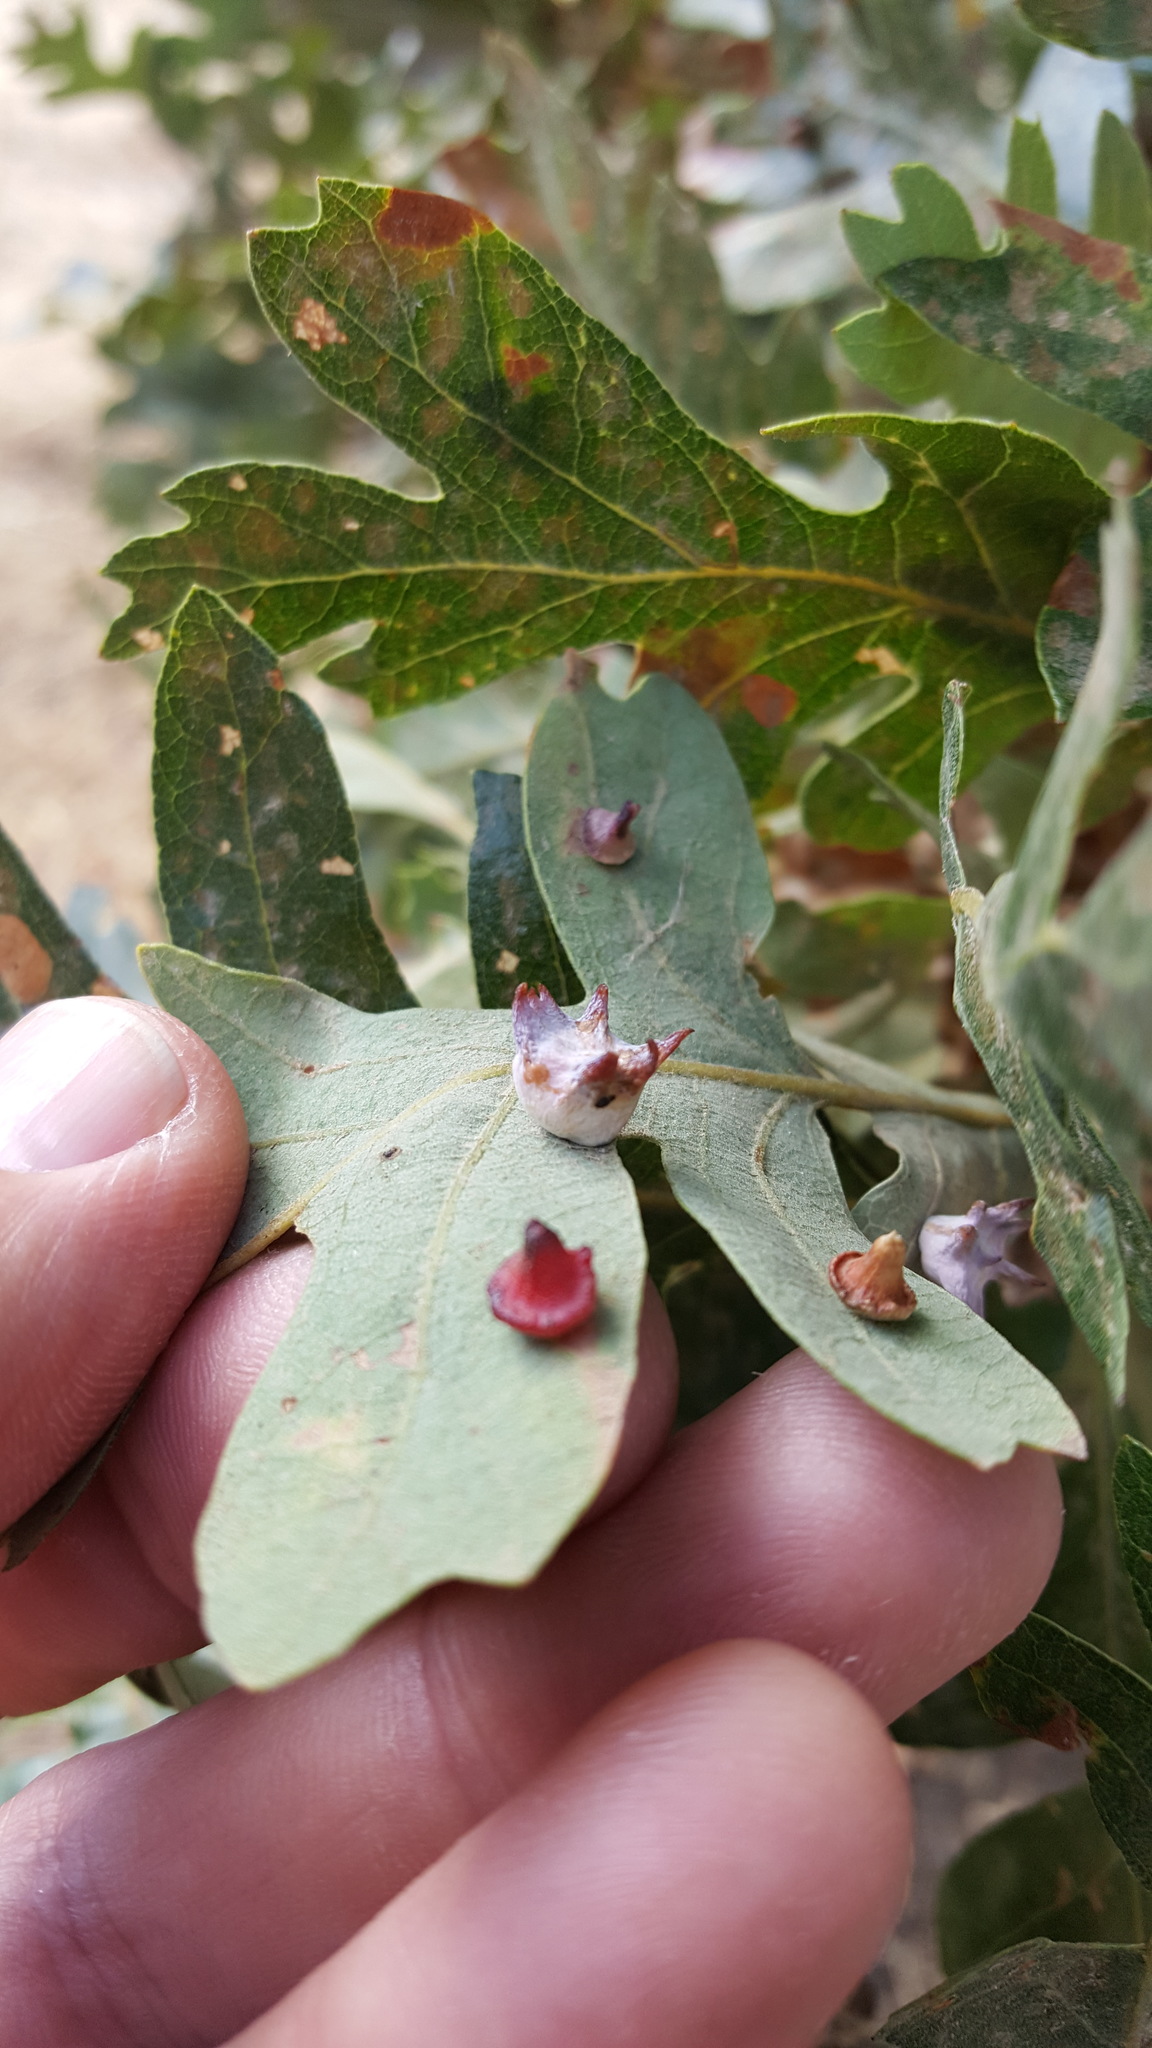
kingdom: Plantae
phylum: Tracheophyta
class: Magnoliopsida
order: Fagales
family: Fagaceae
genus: Quercus
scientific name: Quercus lobata
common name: Valley oak
